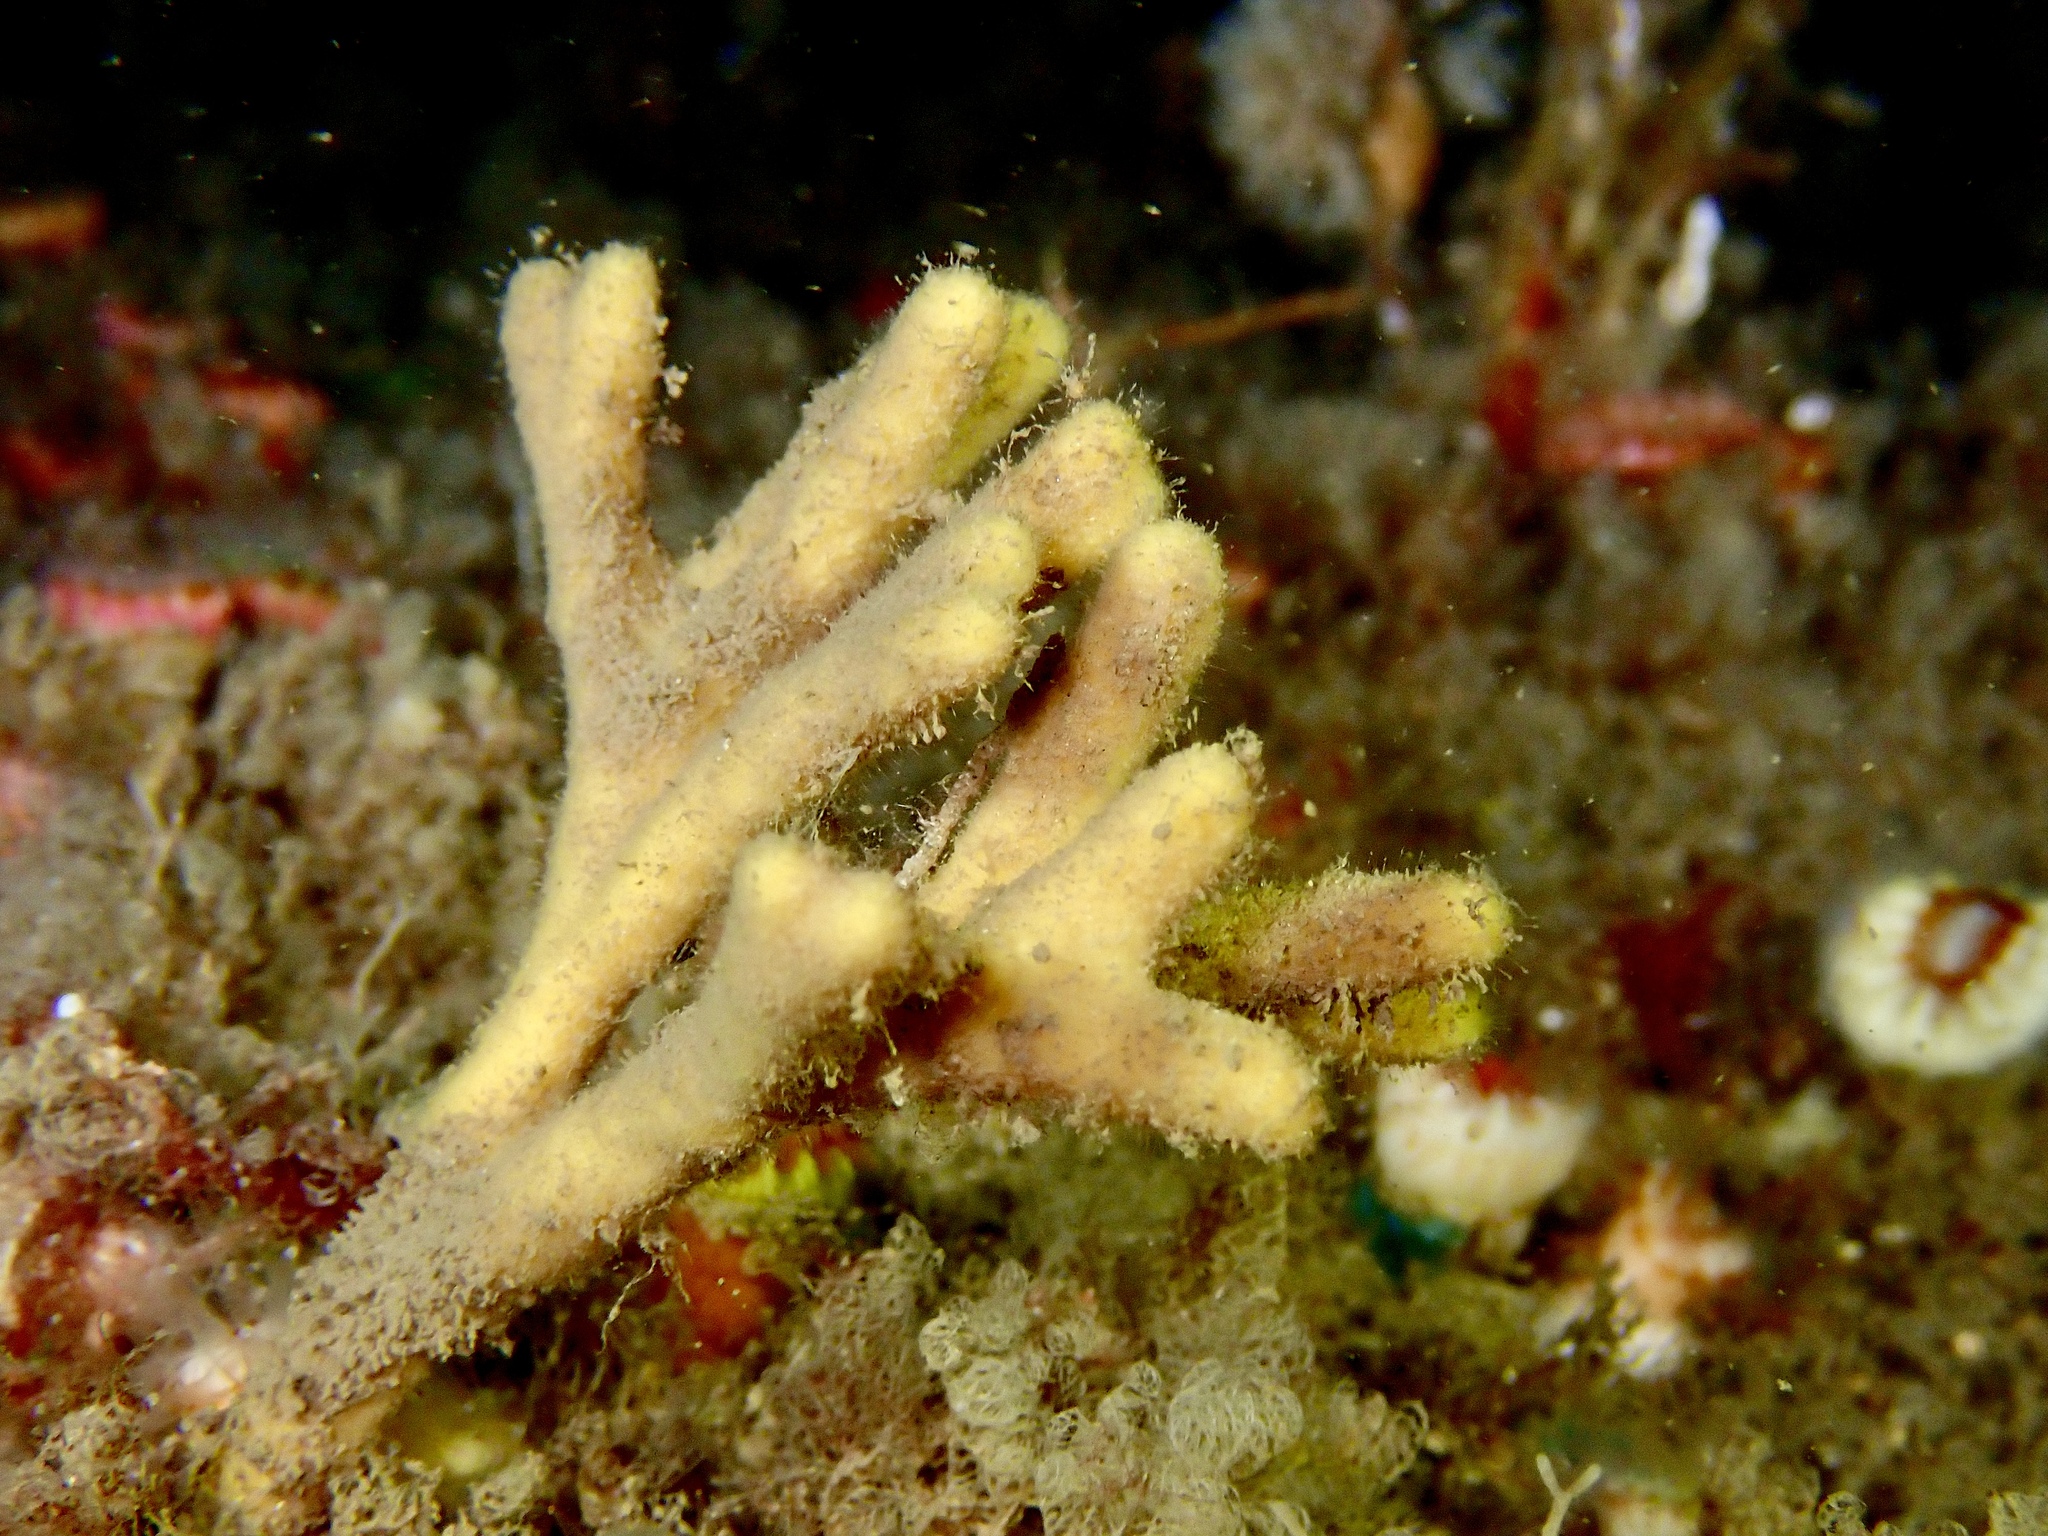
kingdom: Animalia
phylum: Porifera
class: Demospongiae
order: Axinellida
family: Stelligeridae
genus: Stelligera
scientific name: Stelligera stuposa
